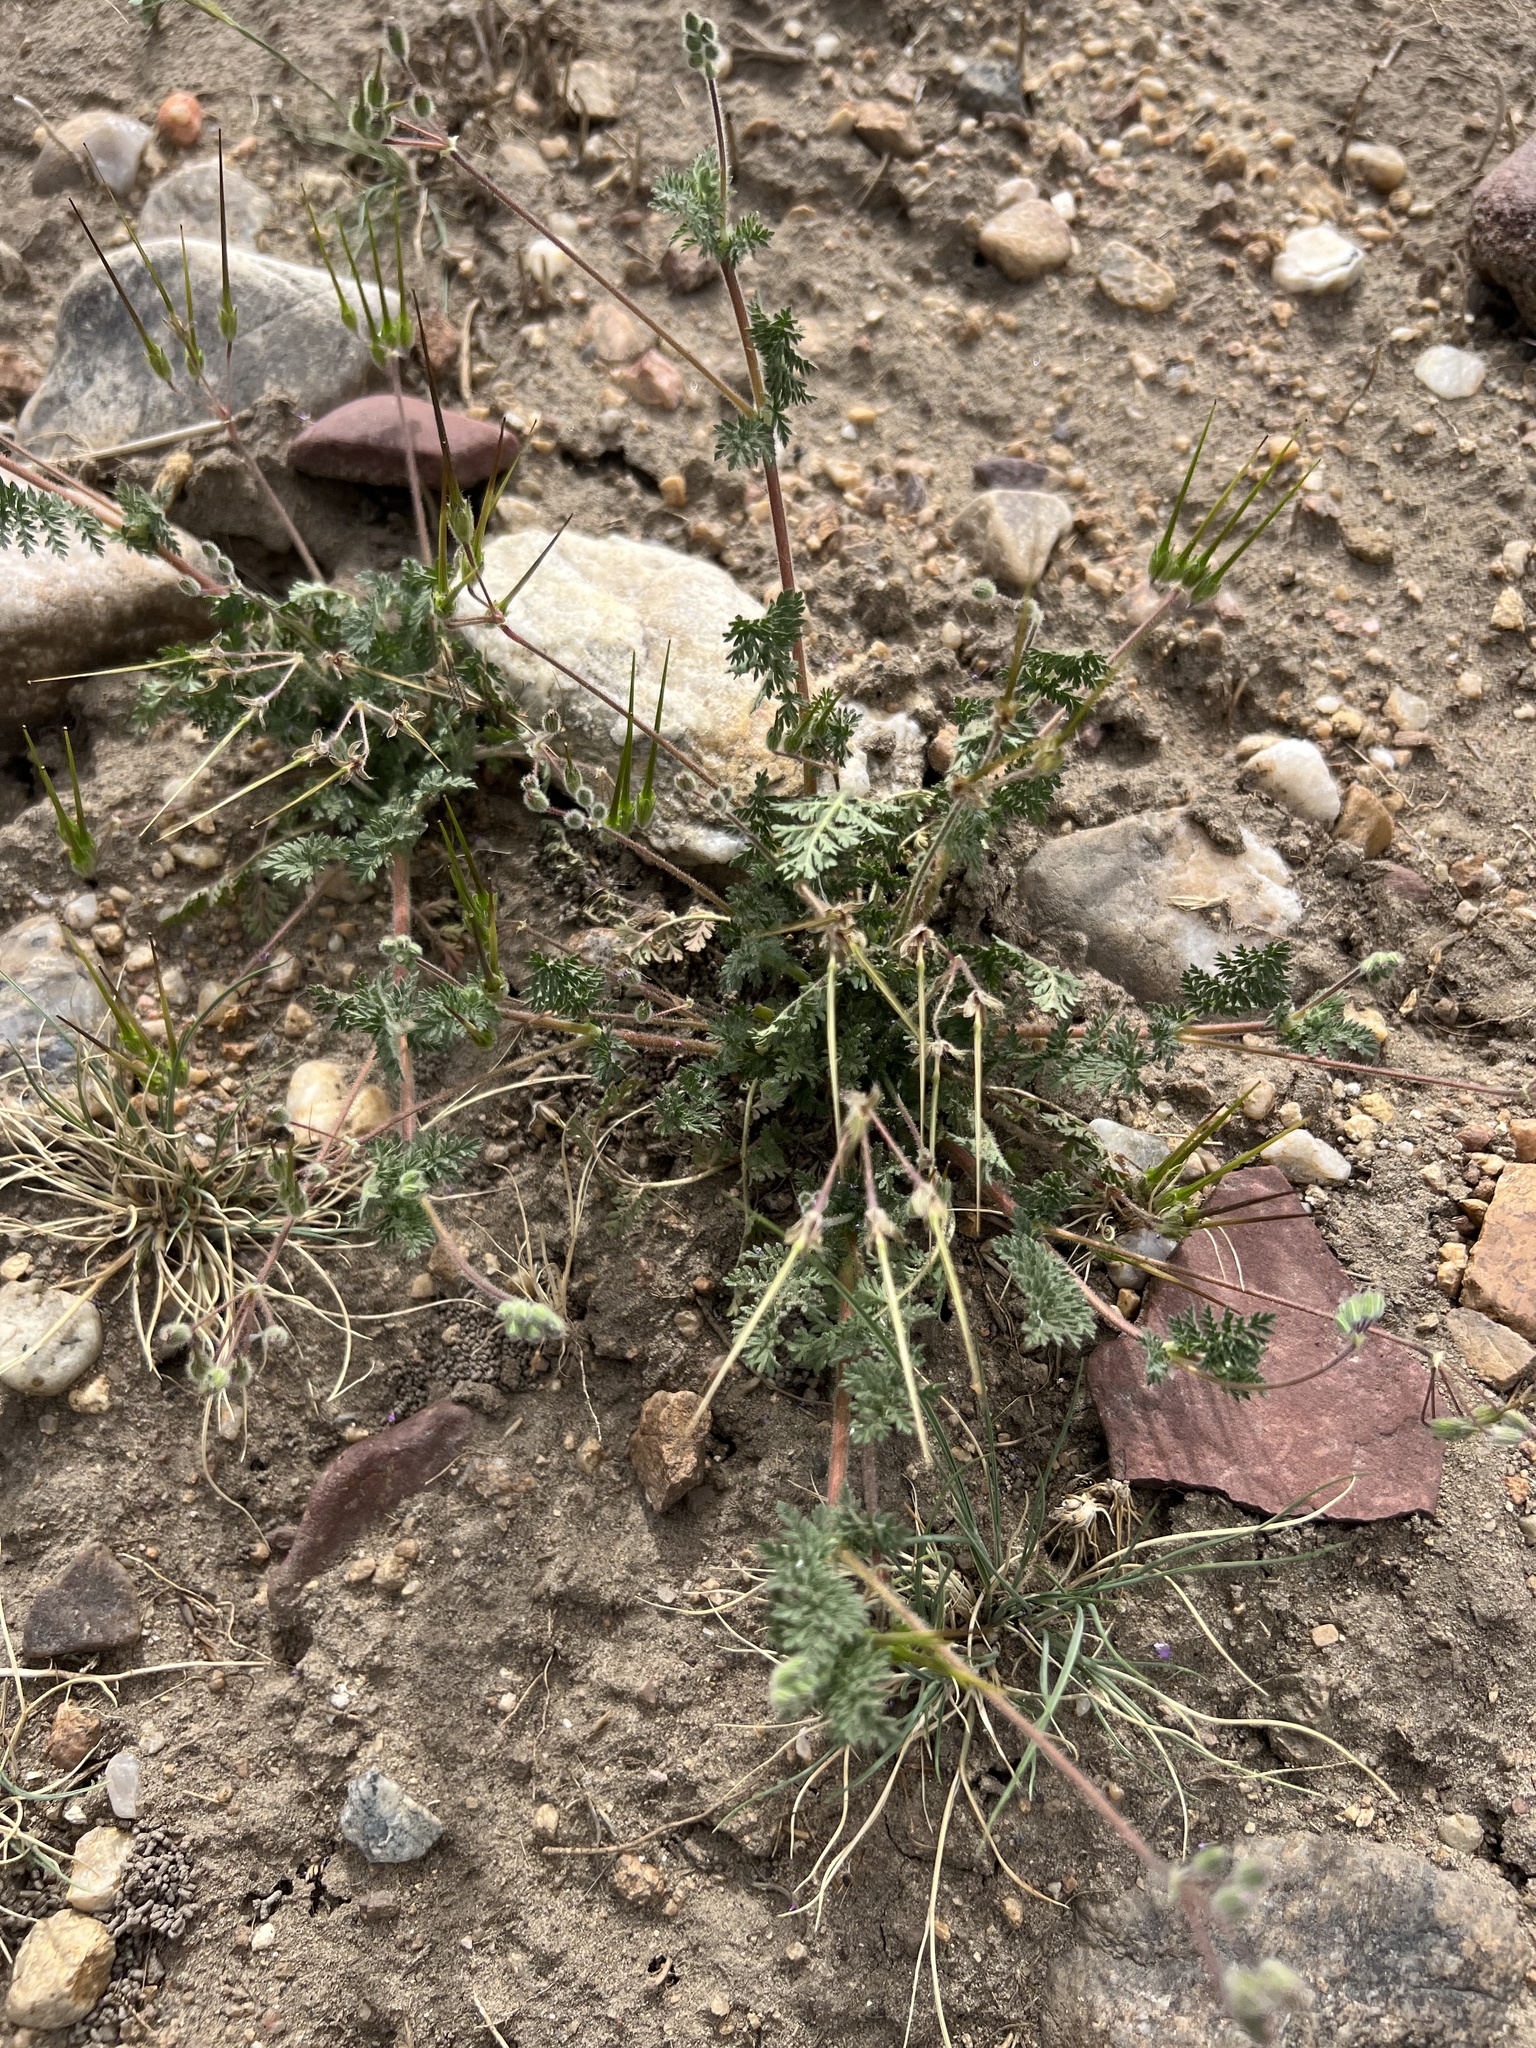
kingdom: Plantae
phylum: Tracheophyta
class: Magnoliopsida
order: Geraniales
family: Geraniaceae
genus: Erodium
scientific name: Erodium cicutarium
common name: Common stork's-bill
